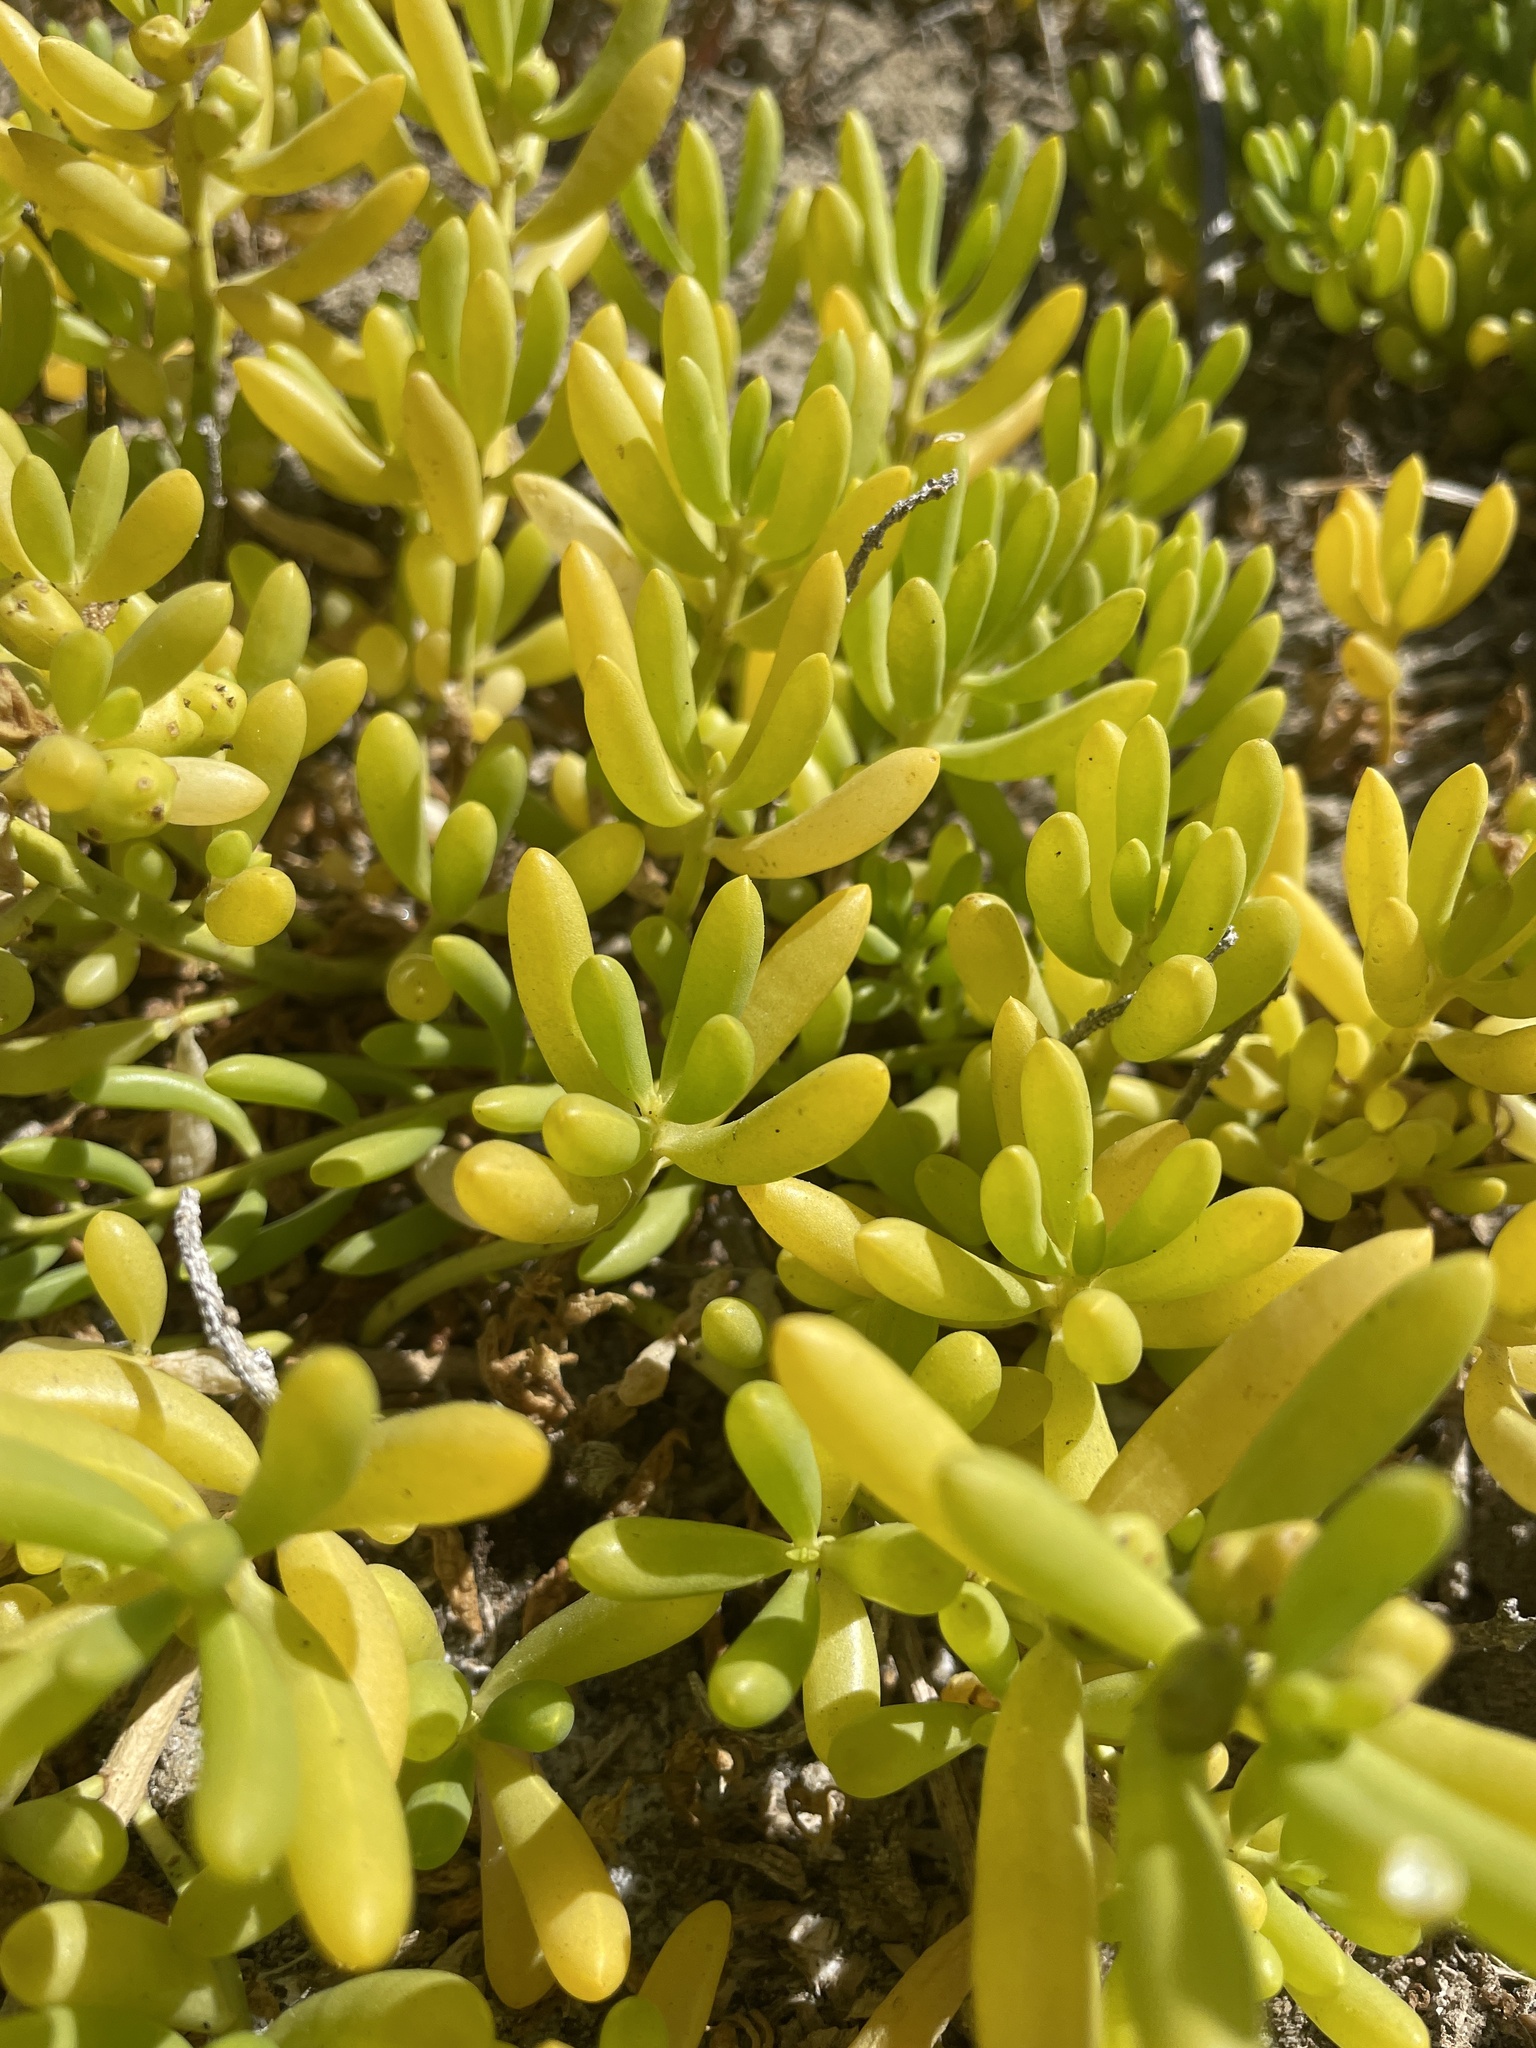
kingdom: Plantae
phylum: Tracheophyta
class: Magnoliopsida
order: Brassicales
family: Bataceae
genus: Batis
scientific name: Batis maritima
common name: Turtleweed
